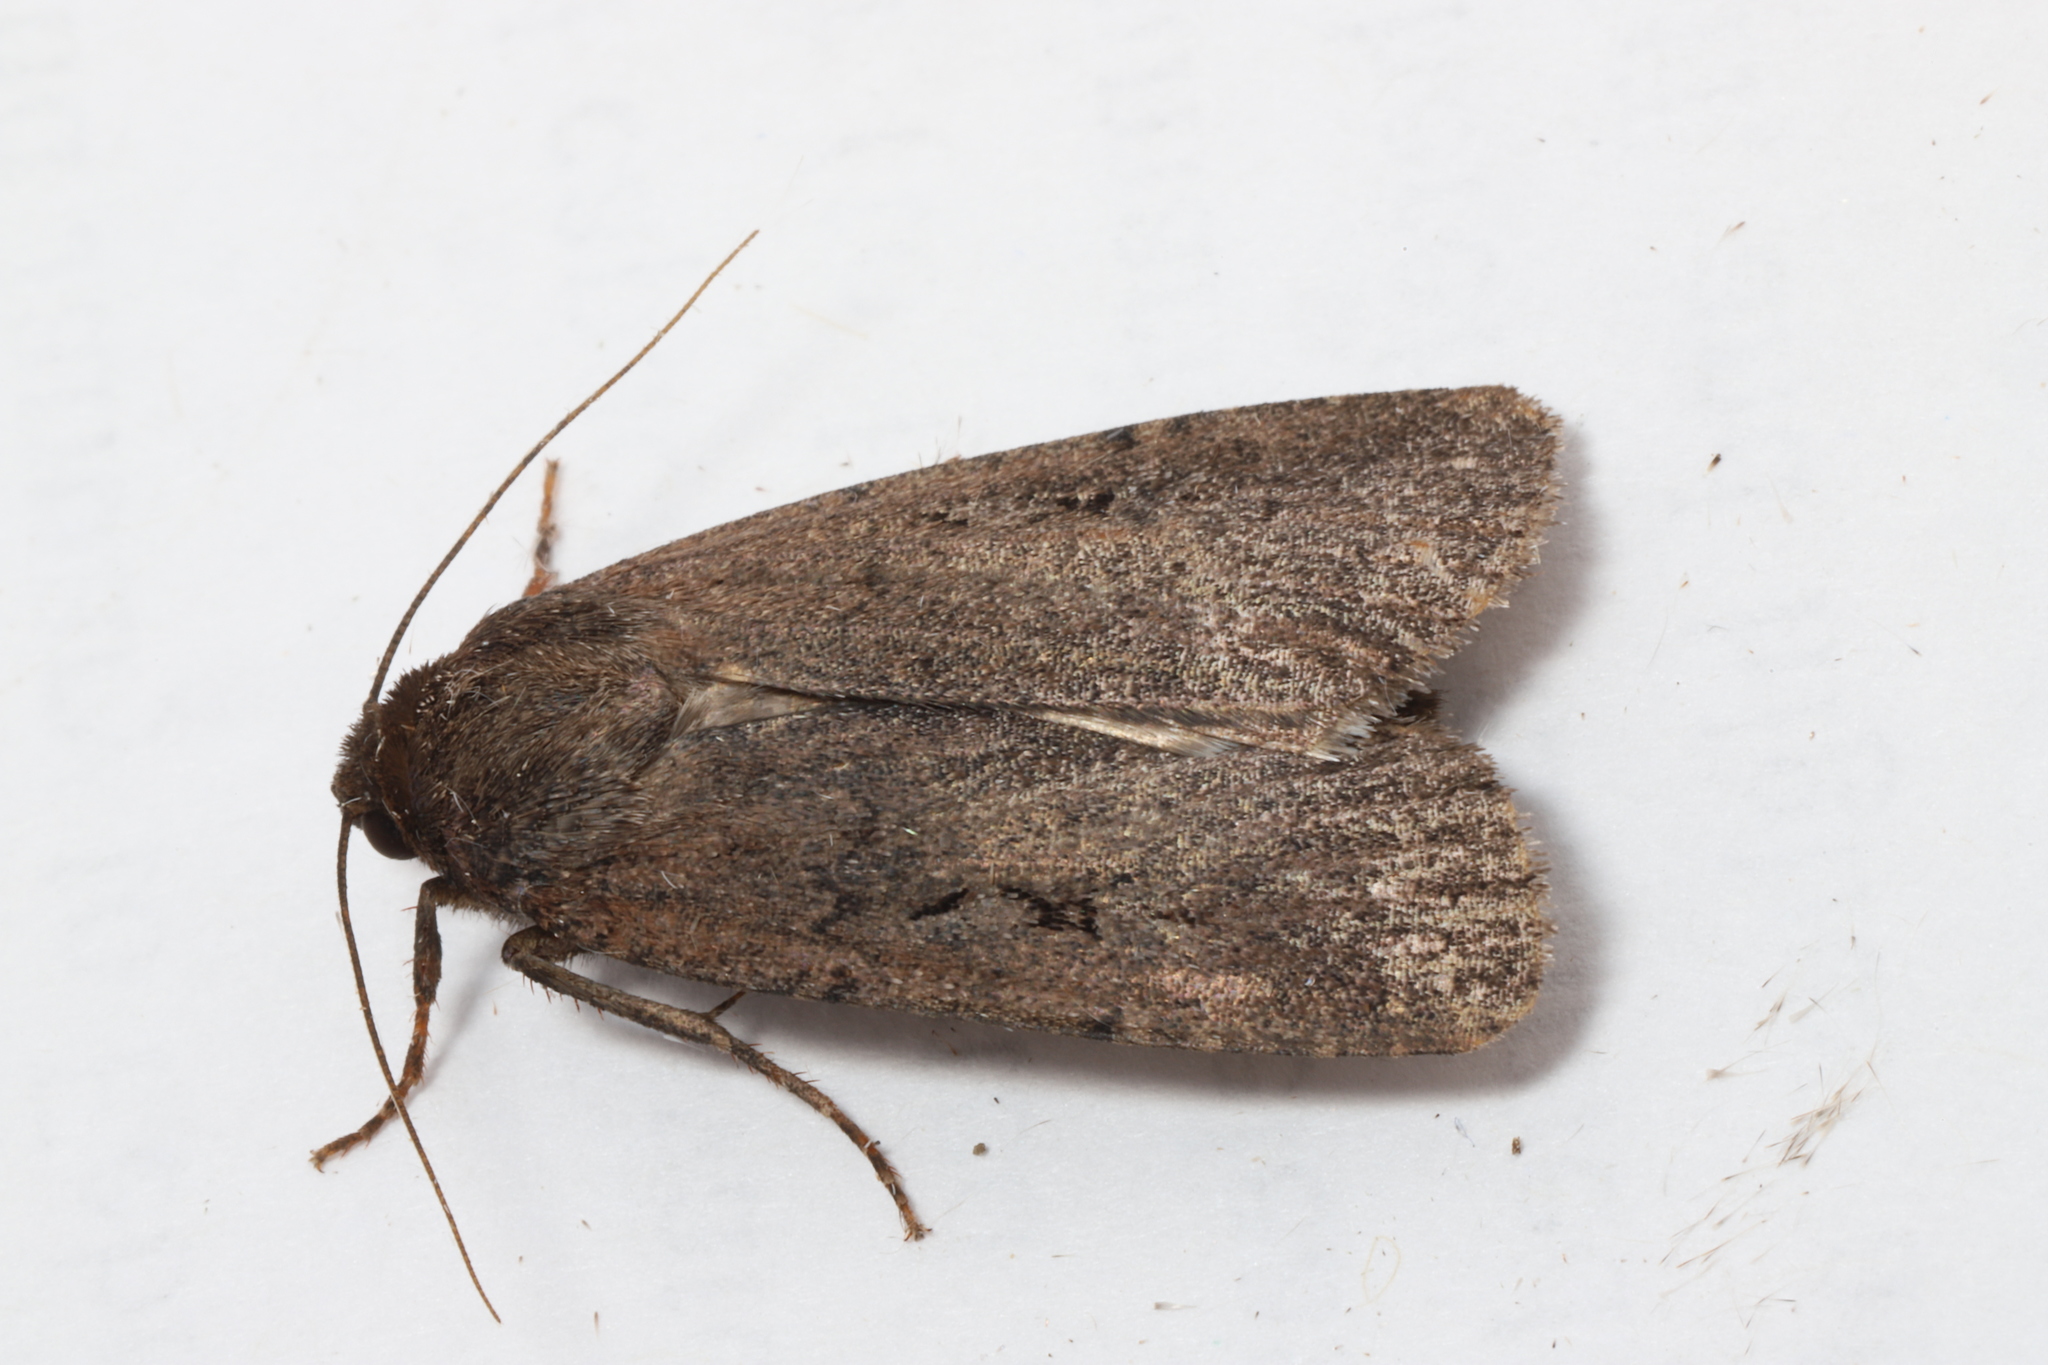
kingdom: Animalia
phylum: Arthropoda
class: Insecta
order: Lepidoptera
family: Noctuidae
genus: Spaelotis
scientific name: Spaelotis clandestina
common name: Clandestine dart
